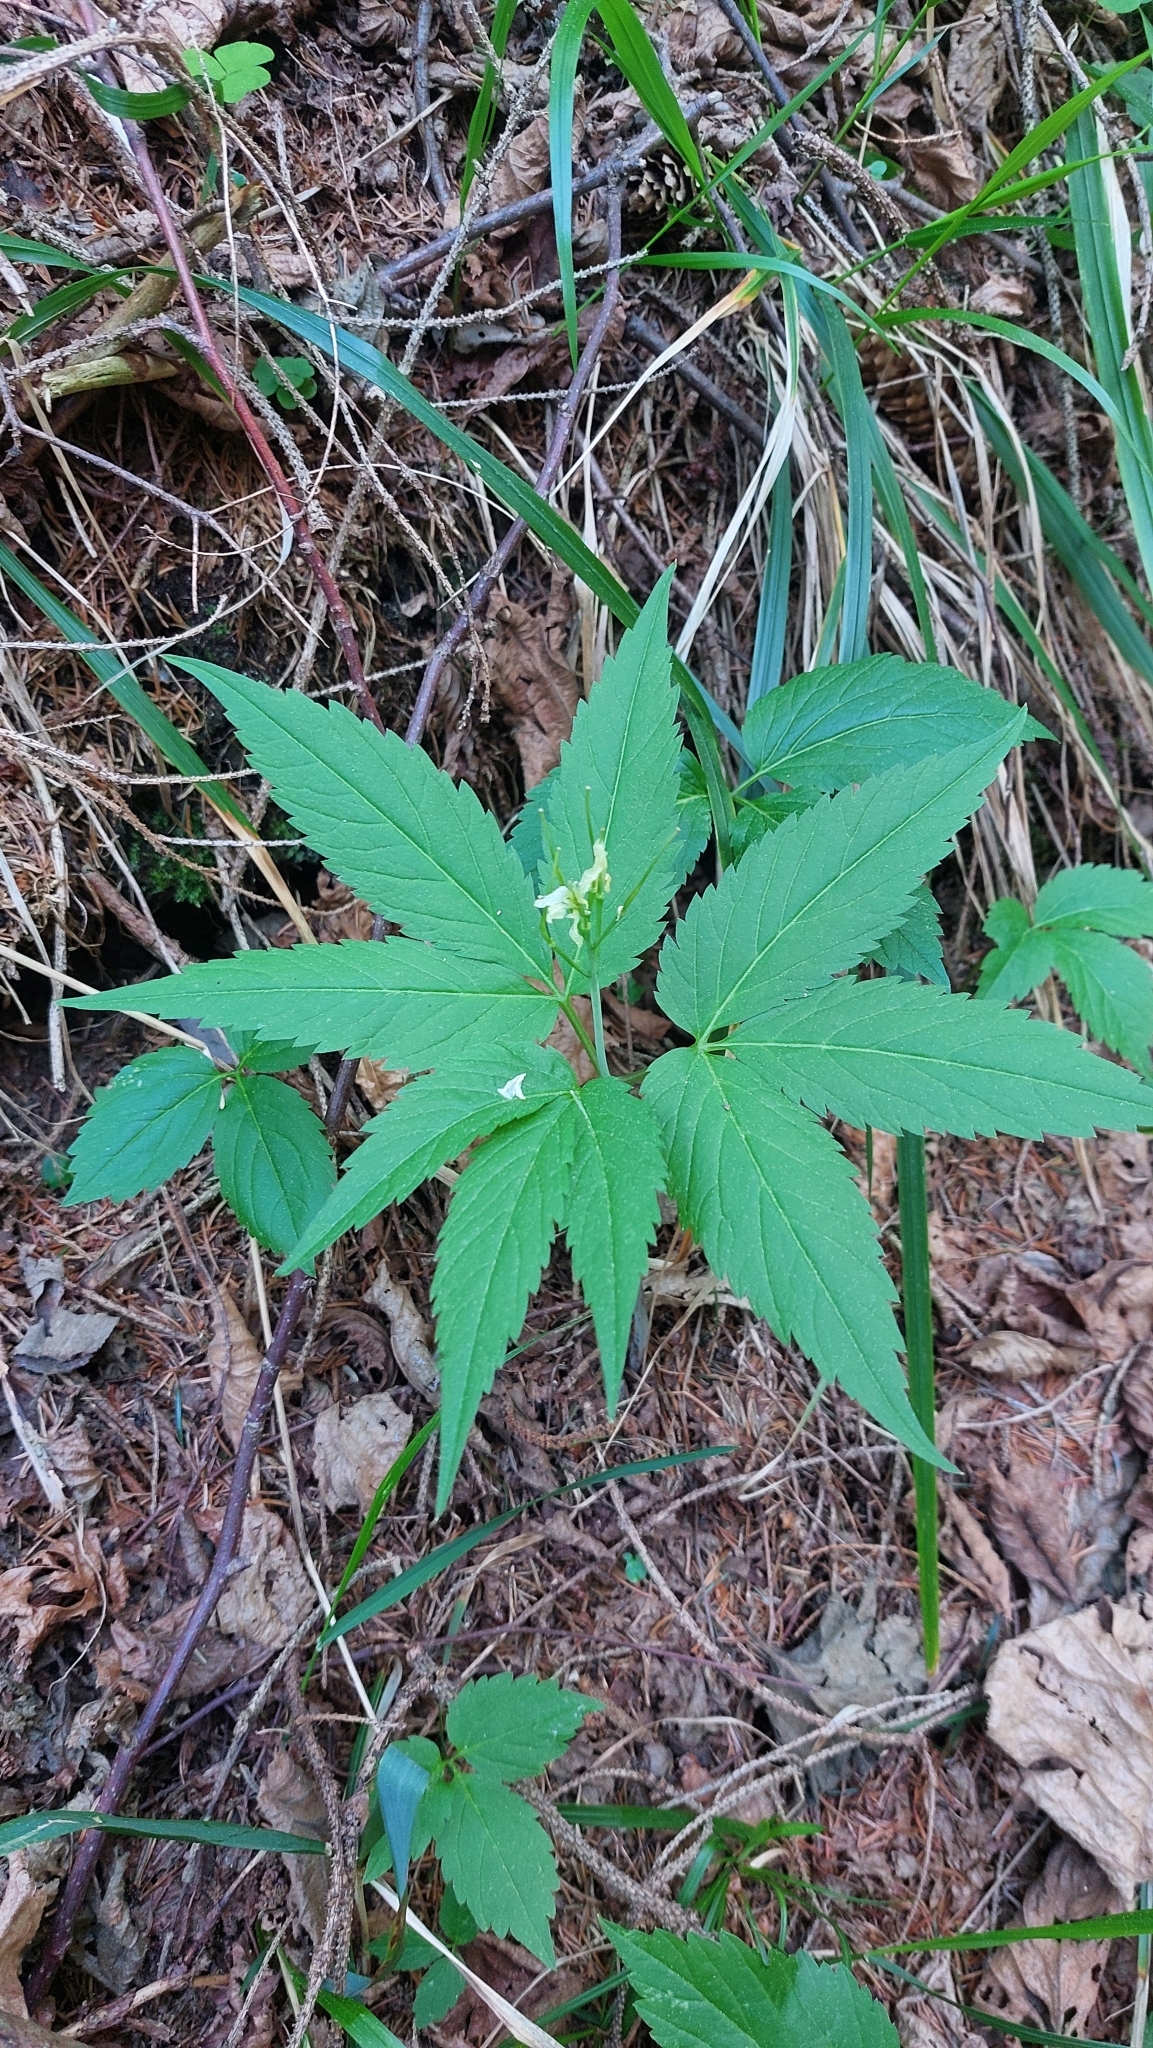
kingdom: Plantae
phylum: Tracheophyta
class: Magnoliopsida
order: Brassicales
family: Brassicaceae
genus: Cardamine
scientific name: Cardamine enneaphyllos
